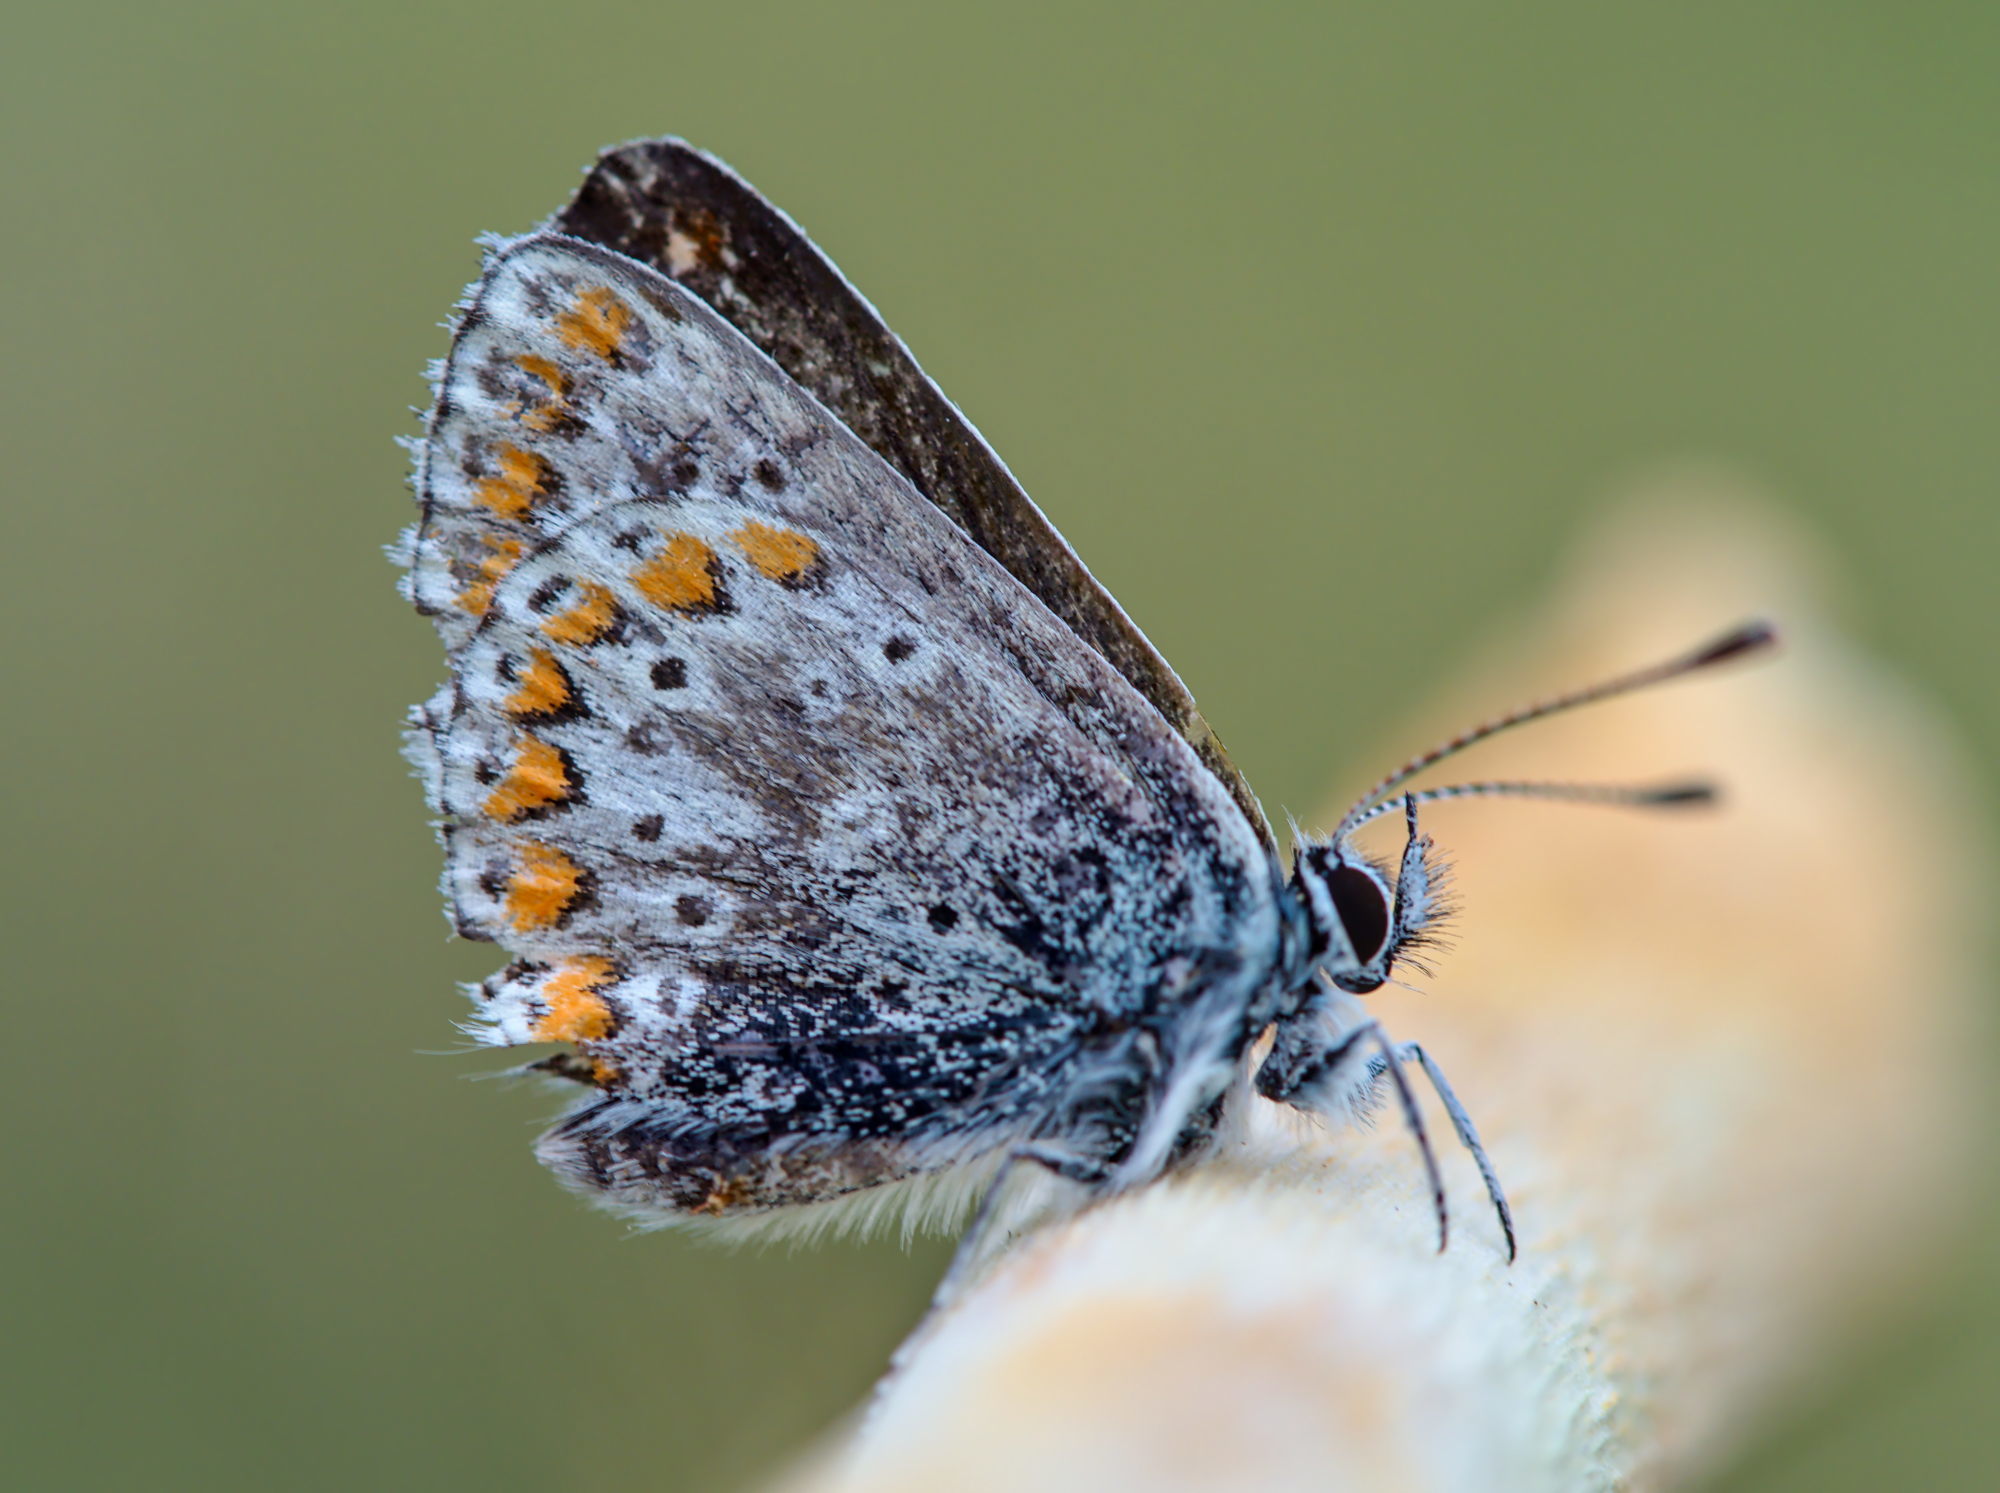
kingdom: Animalia
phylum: Arthropoda
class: Insecta
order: Lepidoptera
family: Lycaenidae
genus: Aricia
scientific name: Aricia agestis
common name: Brown argus
